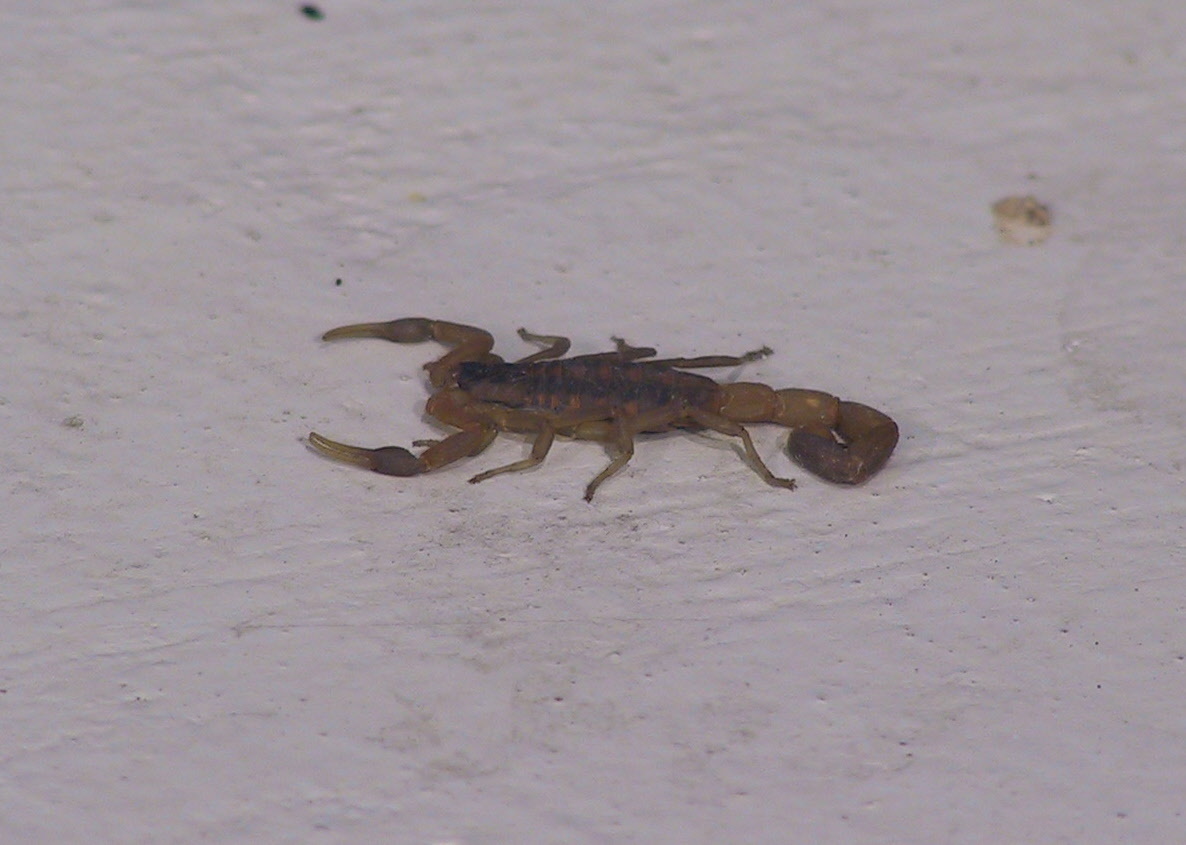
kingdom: Animalia
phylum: Arthropoda
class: Arachnida
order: Scorpiones
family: Buthidae
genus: Centruroides
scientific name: Centruroides vittatus
